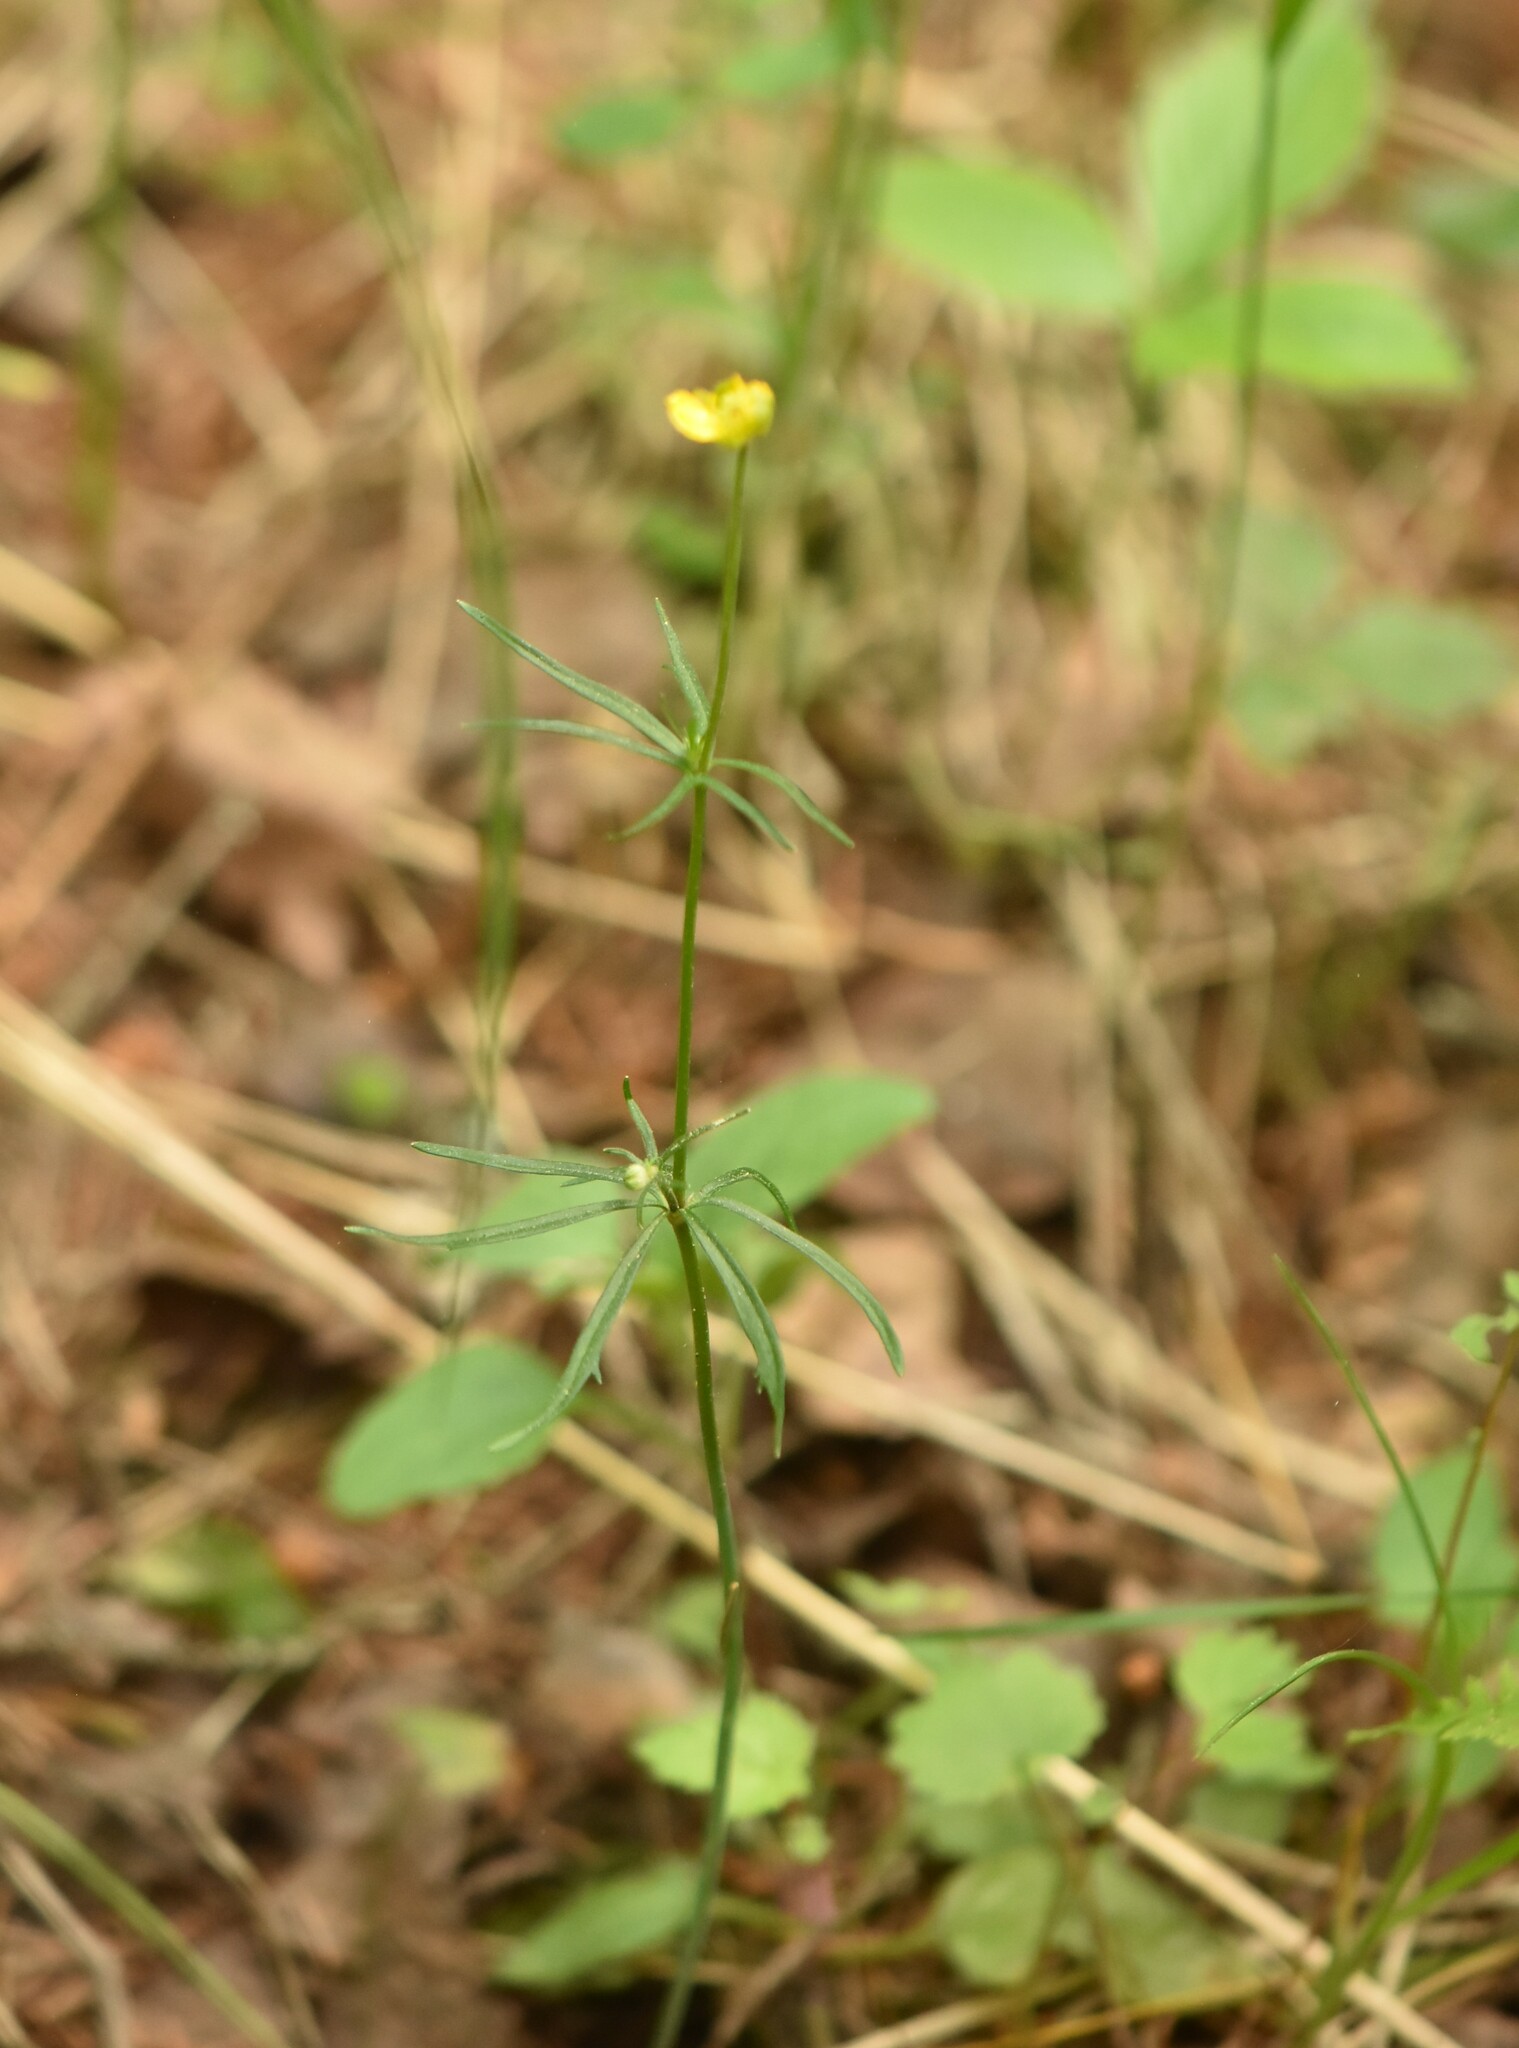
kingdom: Plantae
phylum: Tracheophyta
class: Magnoliopsida
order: Ranunculales
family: Ranunculaceae
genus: Ranunculus
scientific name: Ranunculus auricomus
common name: Goldilocks buttercup
